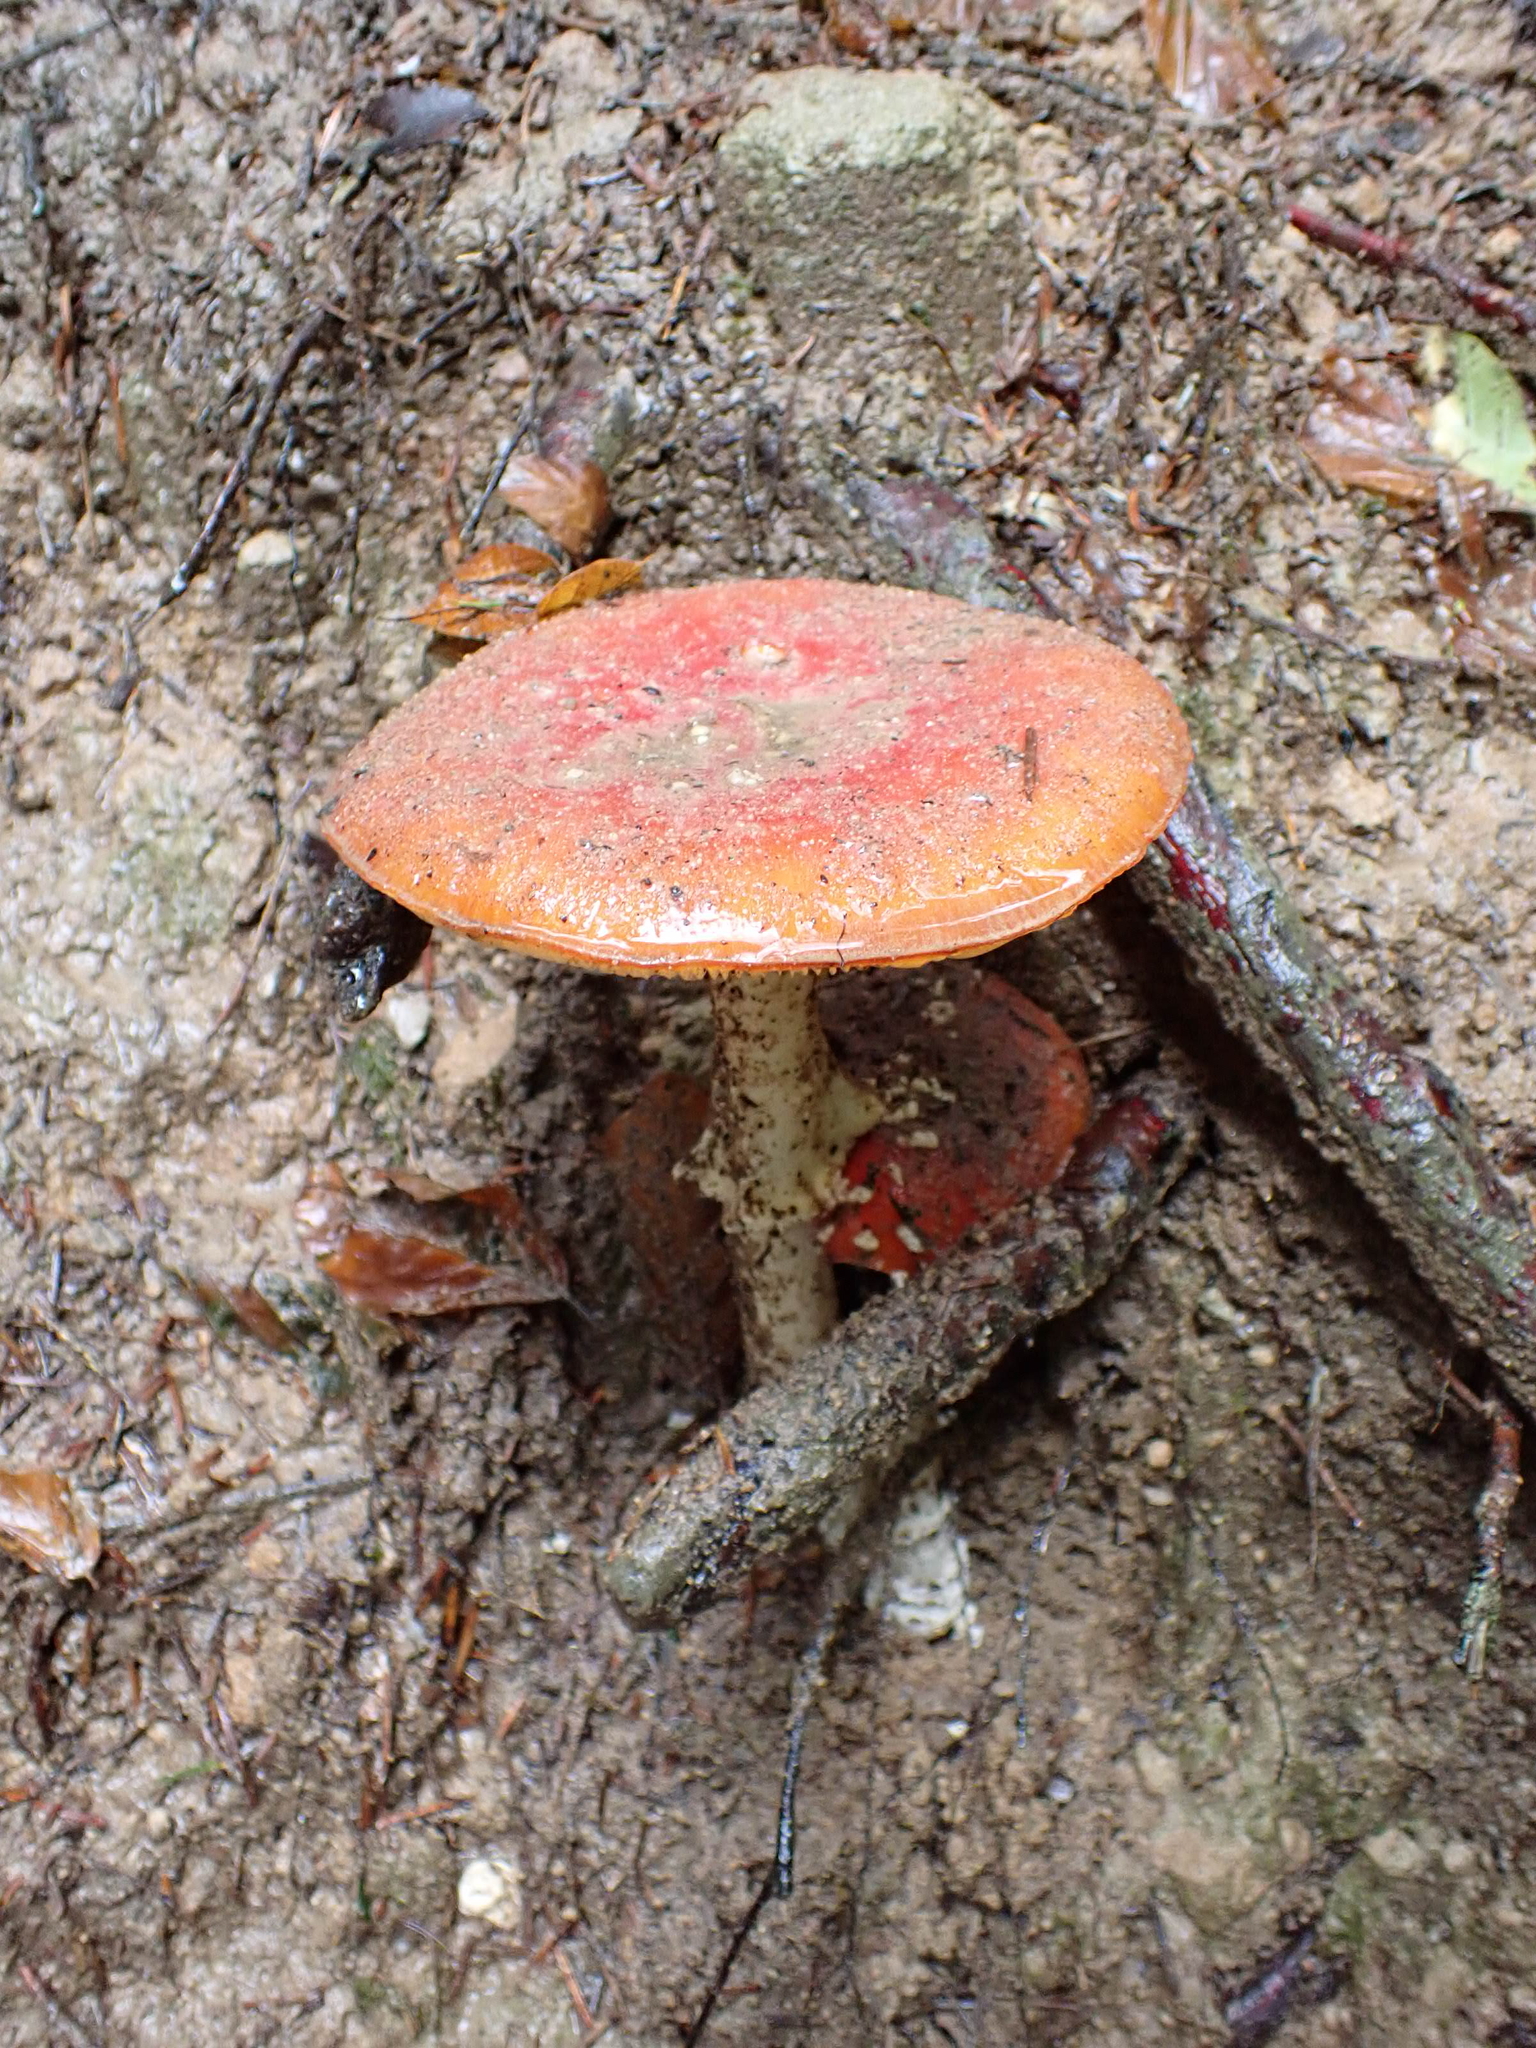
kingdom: Fungi
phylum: Basidiomycota
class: Agaricomycetes
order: Agaricales
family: Amanitaceae
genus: Amanita
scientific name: Amanita muscaria
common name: Fly agaric
